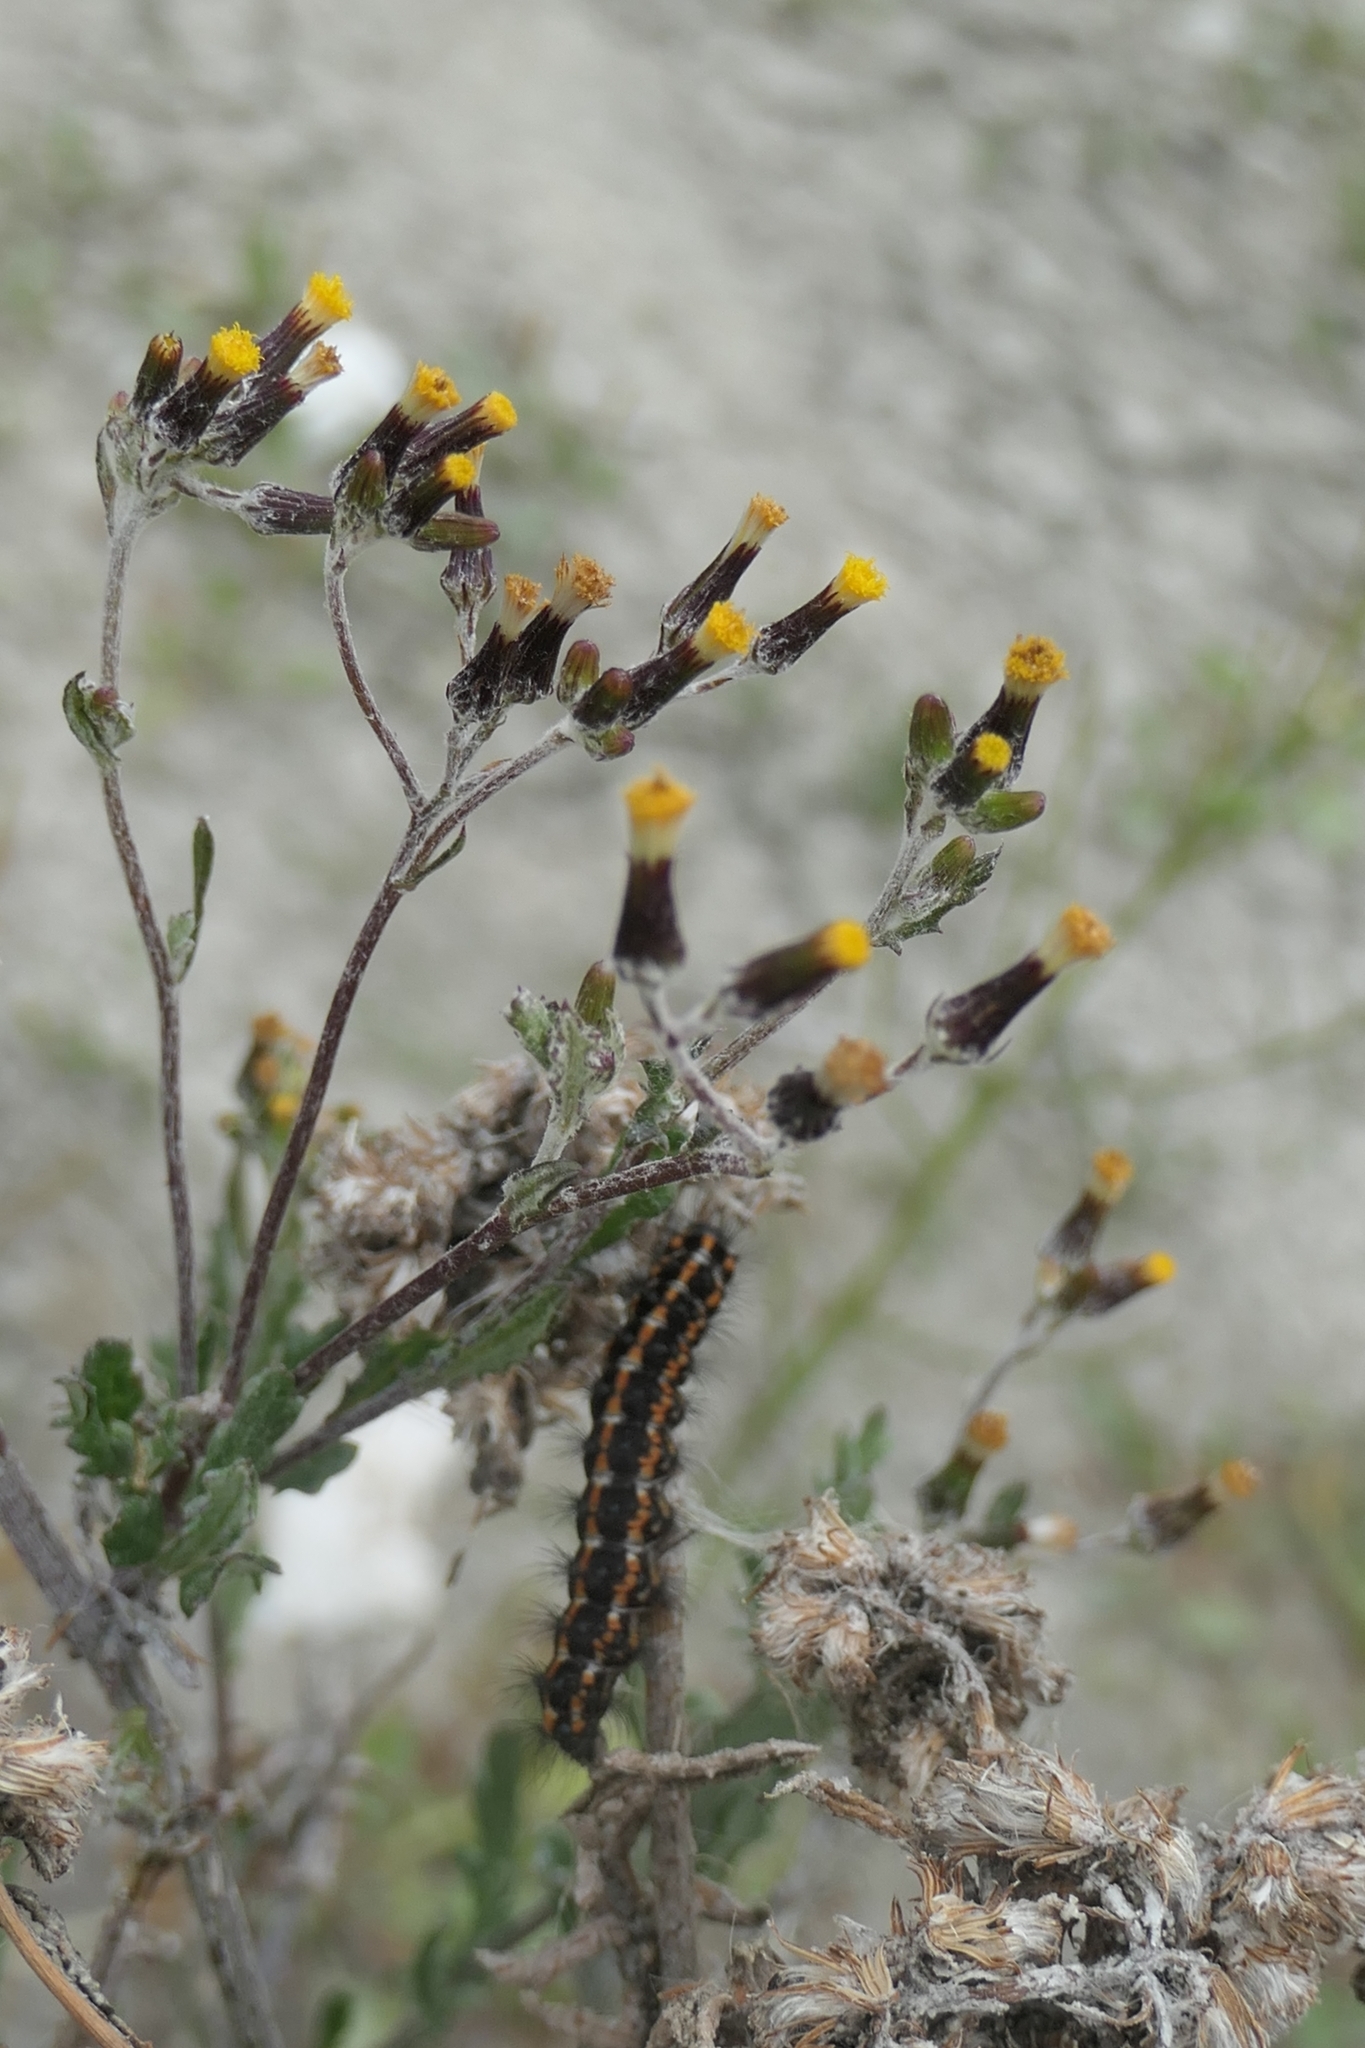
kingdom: Animalia
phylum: Arthropoda
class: Insecta
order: Lepidoptera
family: Erebidae
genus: Nyctemera
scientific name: Nyctemera annulatum
